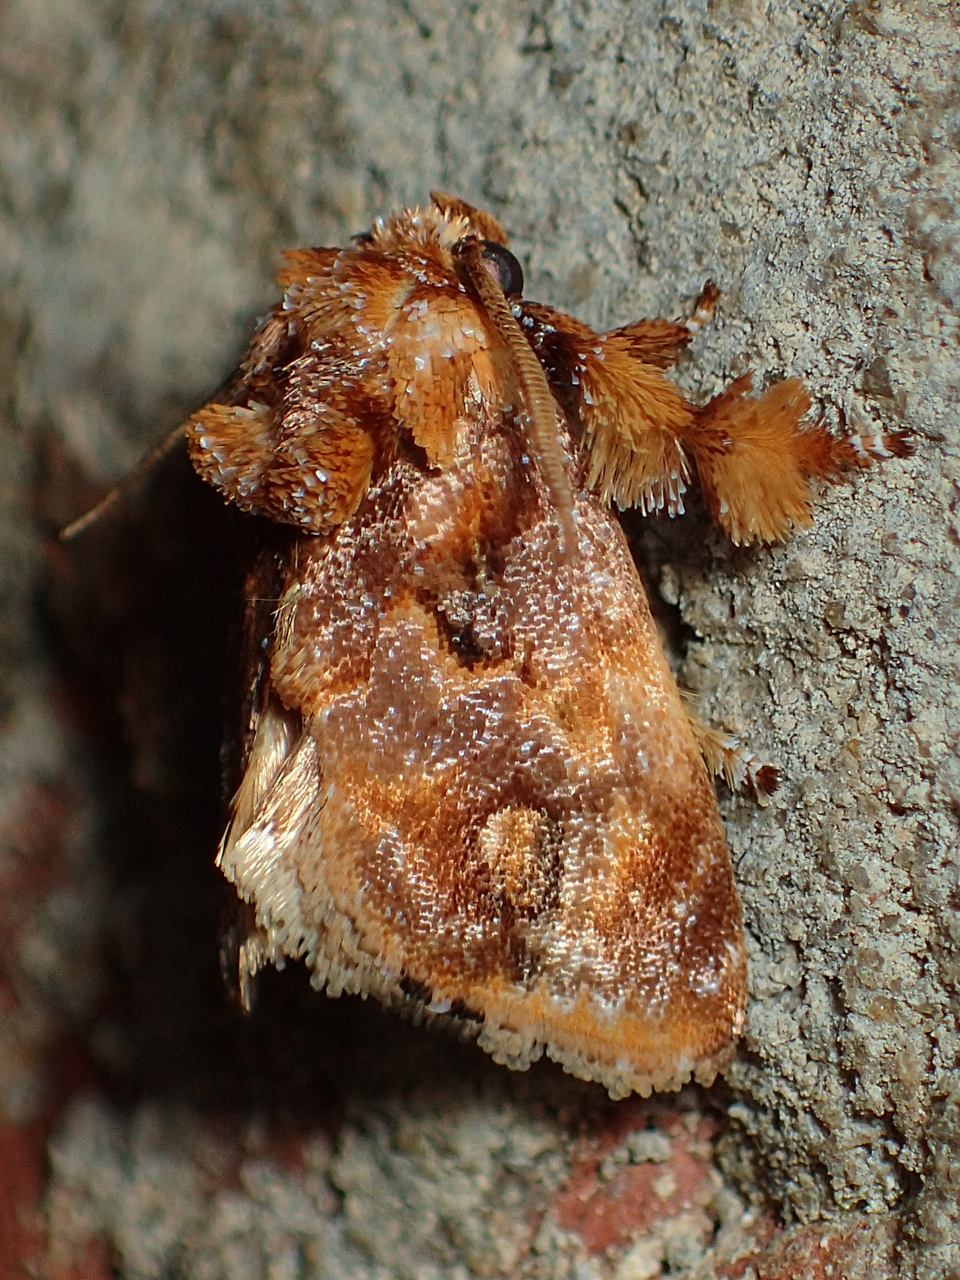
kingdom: Animalia
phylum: Arthropoda
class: Insecta
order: Lepidoptera
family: Limacodidae
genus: Isochaetes
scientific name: Isochaetes beutenmuelleri
